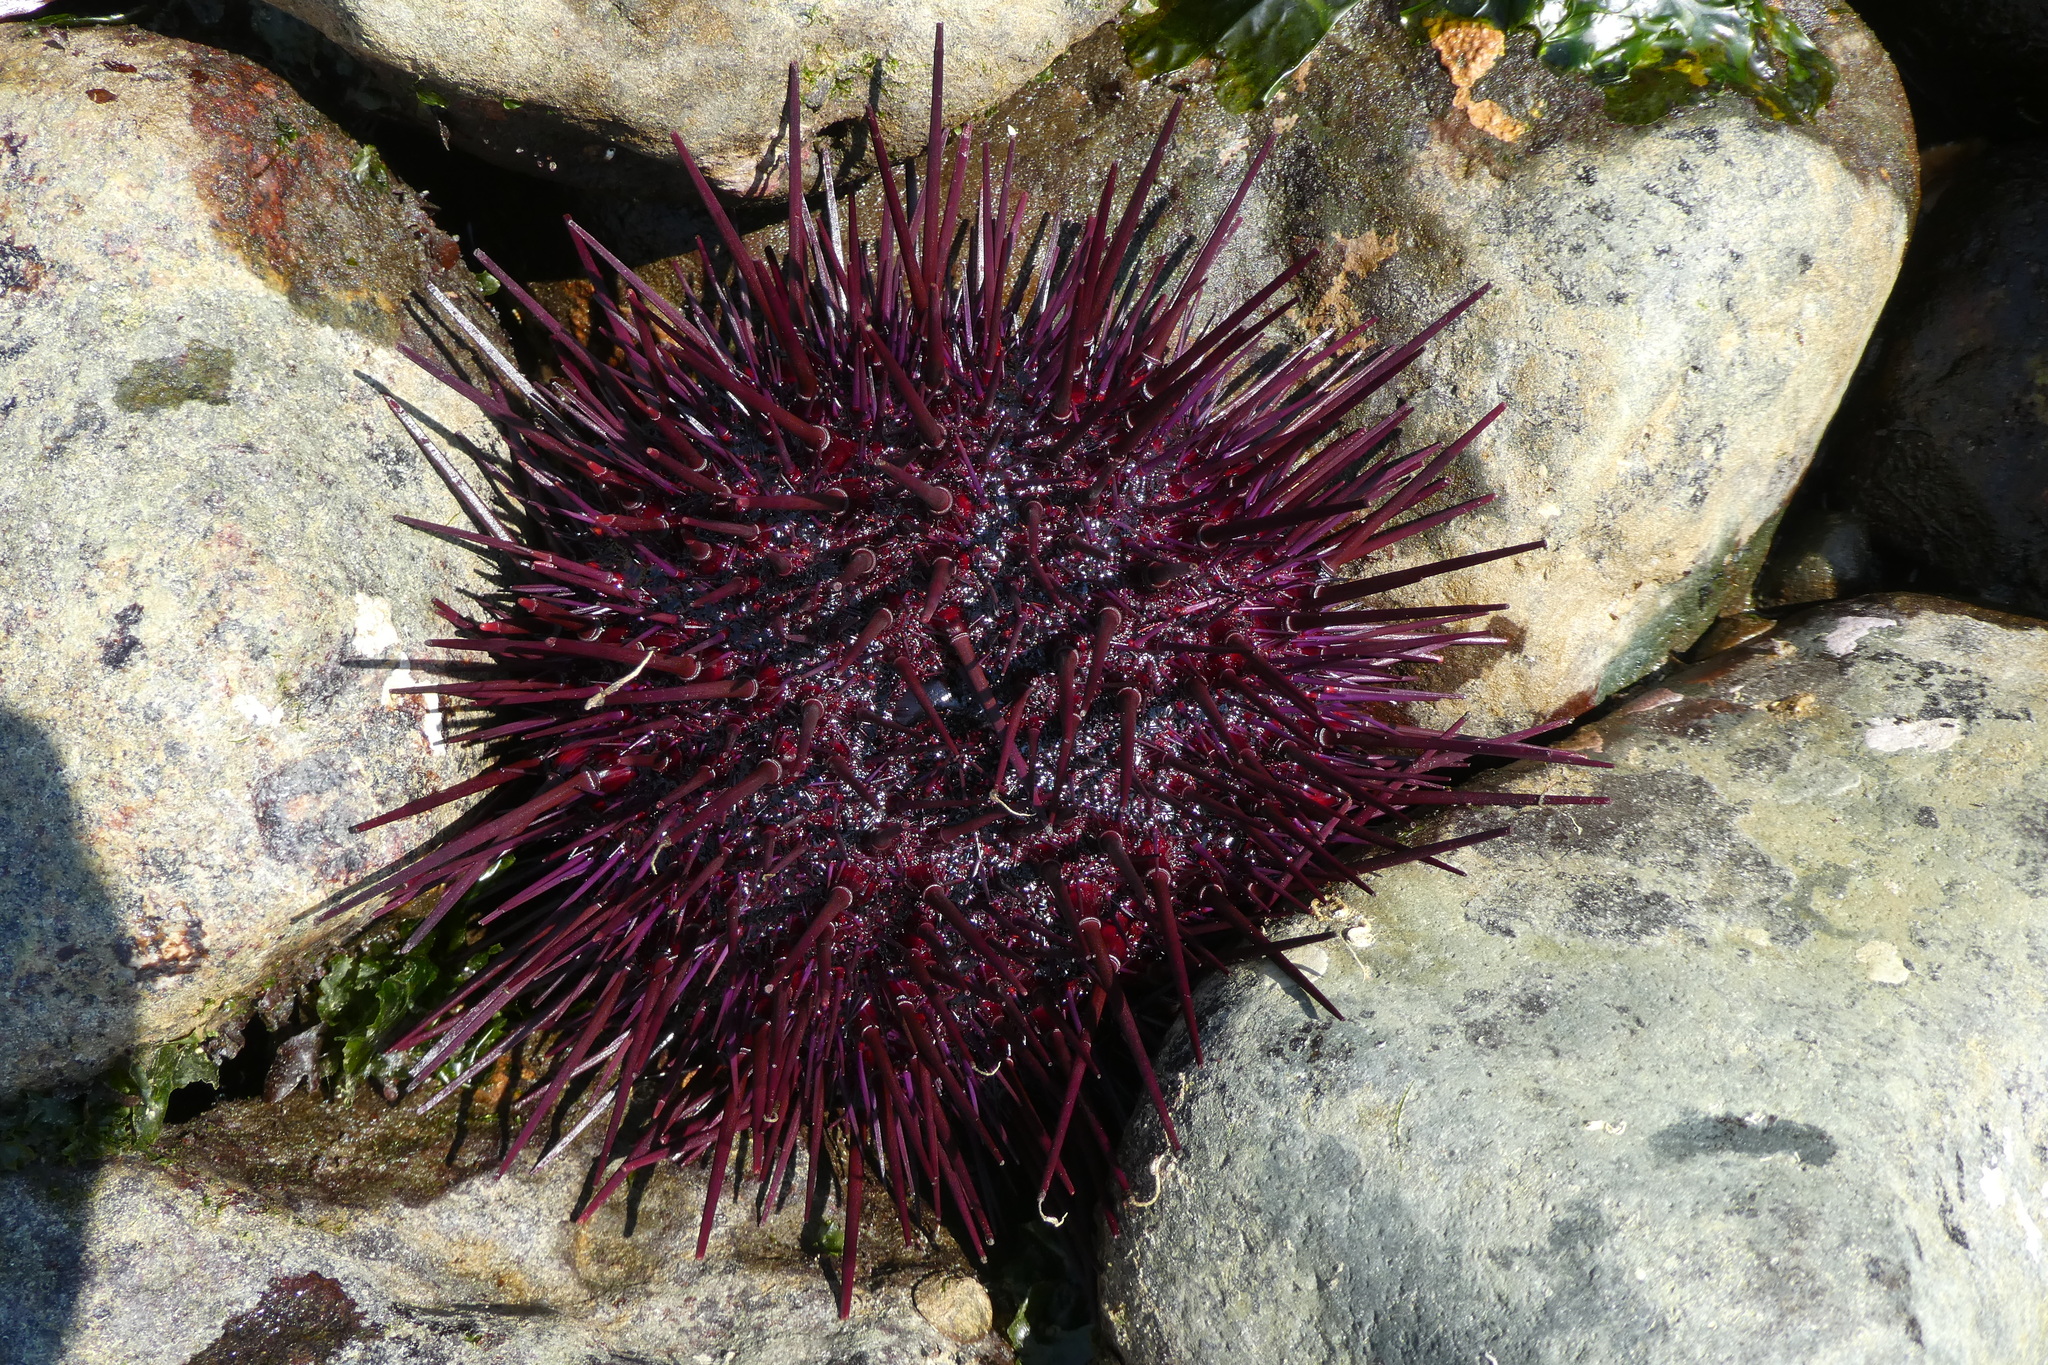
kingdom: Animalia
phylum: Echinodermata
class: Echinoidea
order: Camarodonta
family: Strongylocentrotidae
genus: Mesocentrotus
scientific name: Mesocentrotus franciscanus
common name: Red sea urchin
